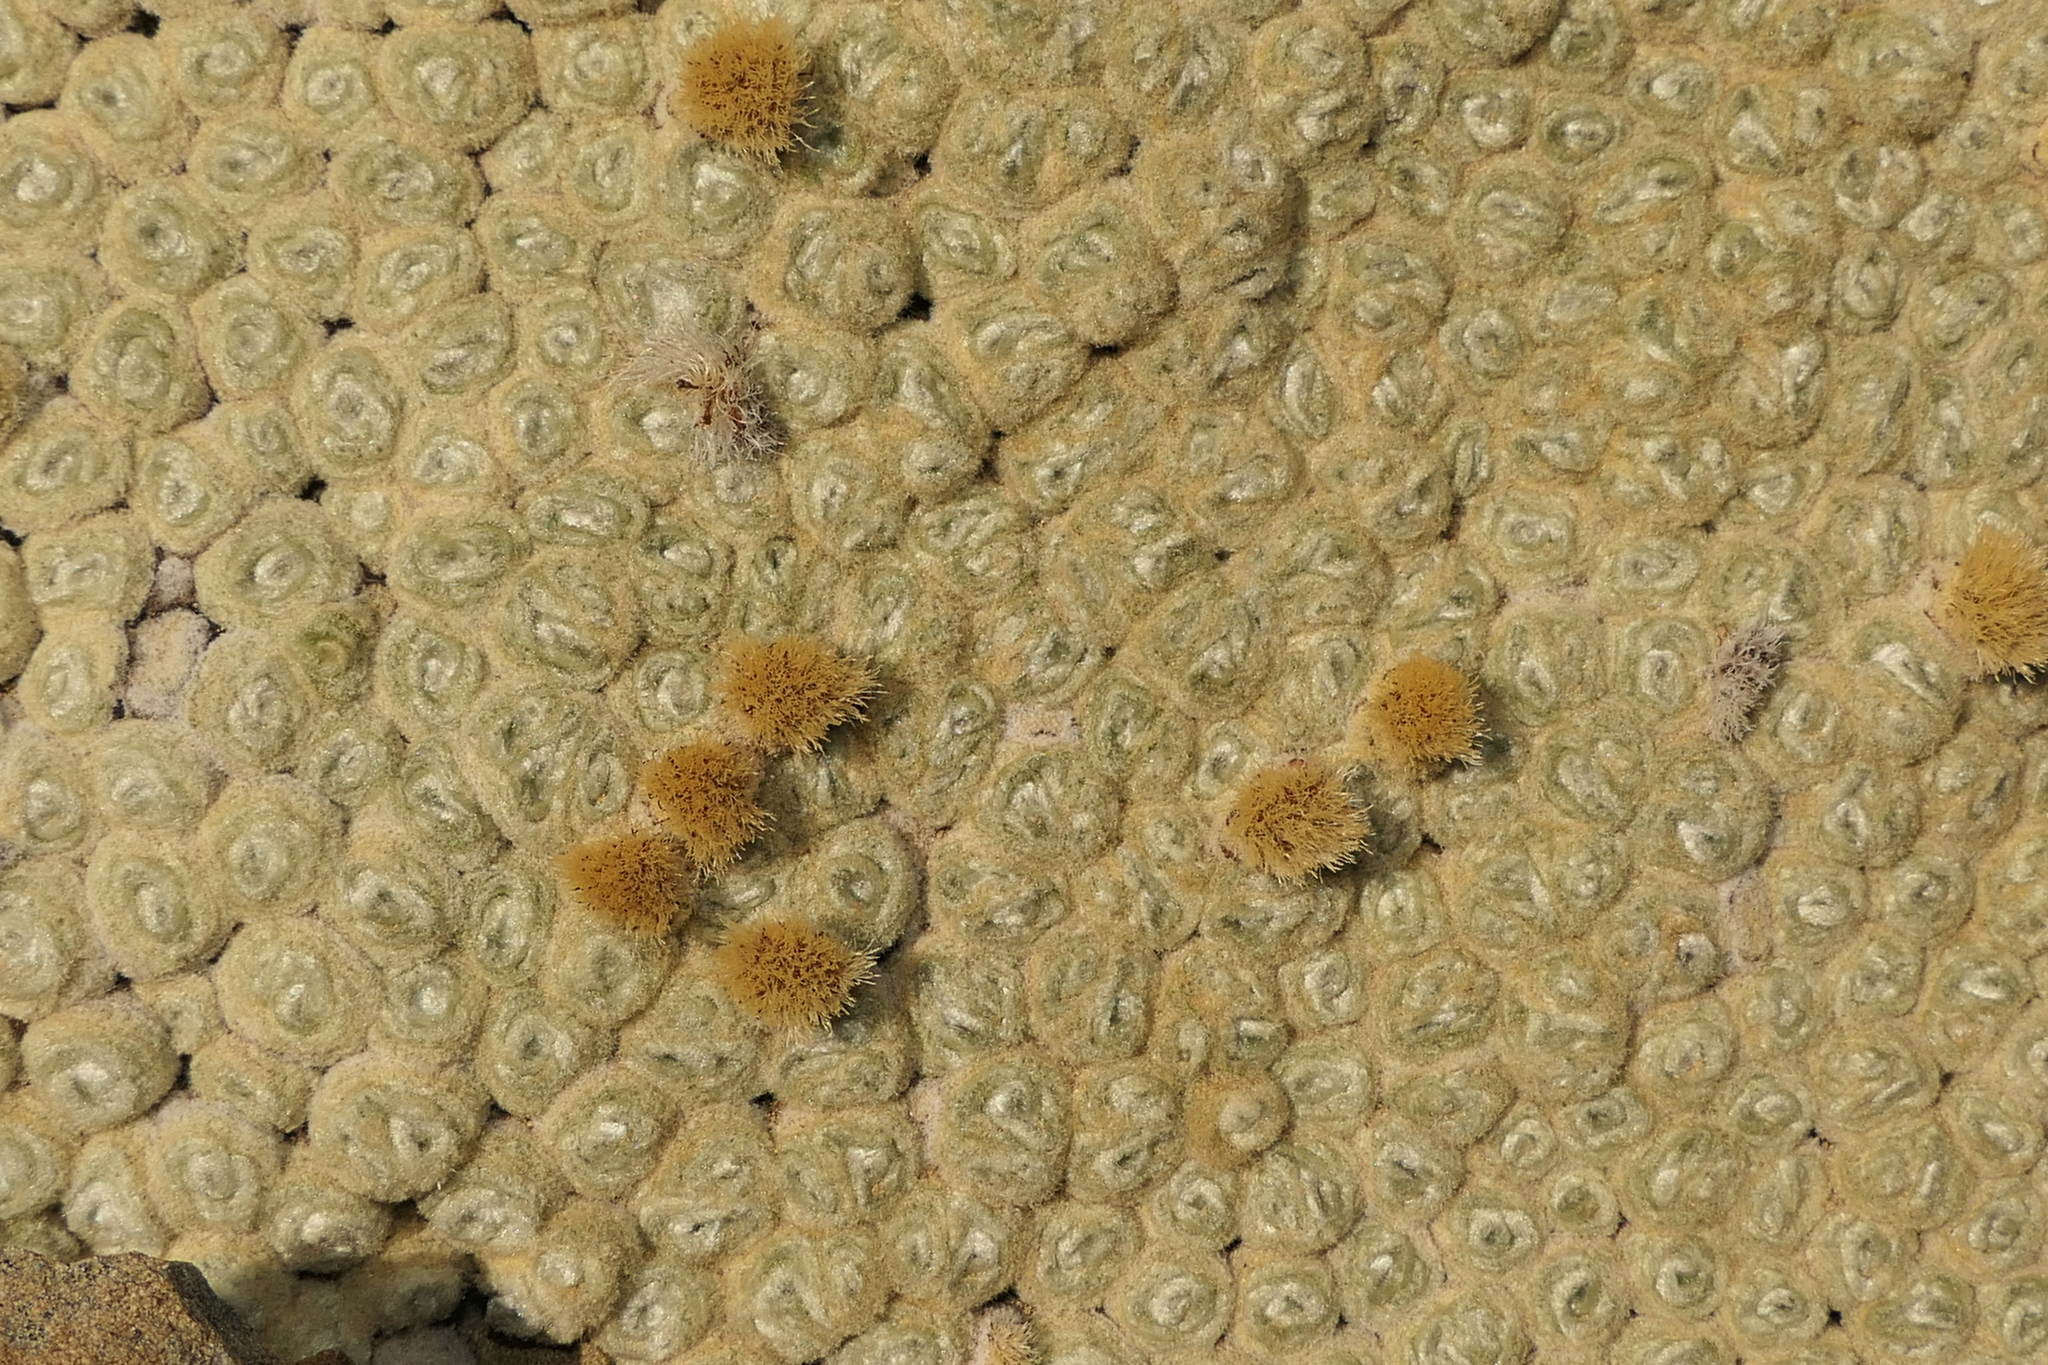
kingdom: Plantae
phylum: Tracheophyta
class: Magnoliopsida
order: Asterales
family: Asteraceae
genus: Haastia
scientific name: Haastia pulvinaris
